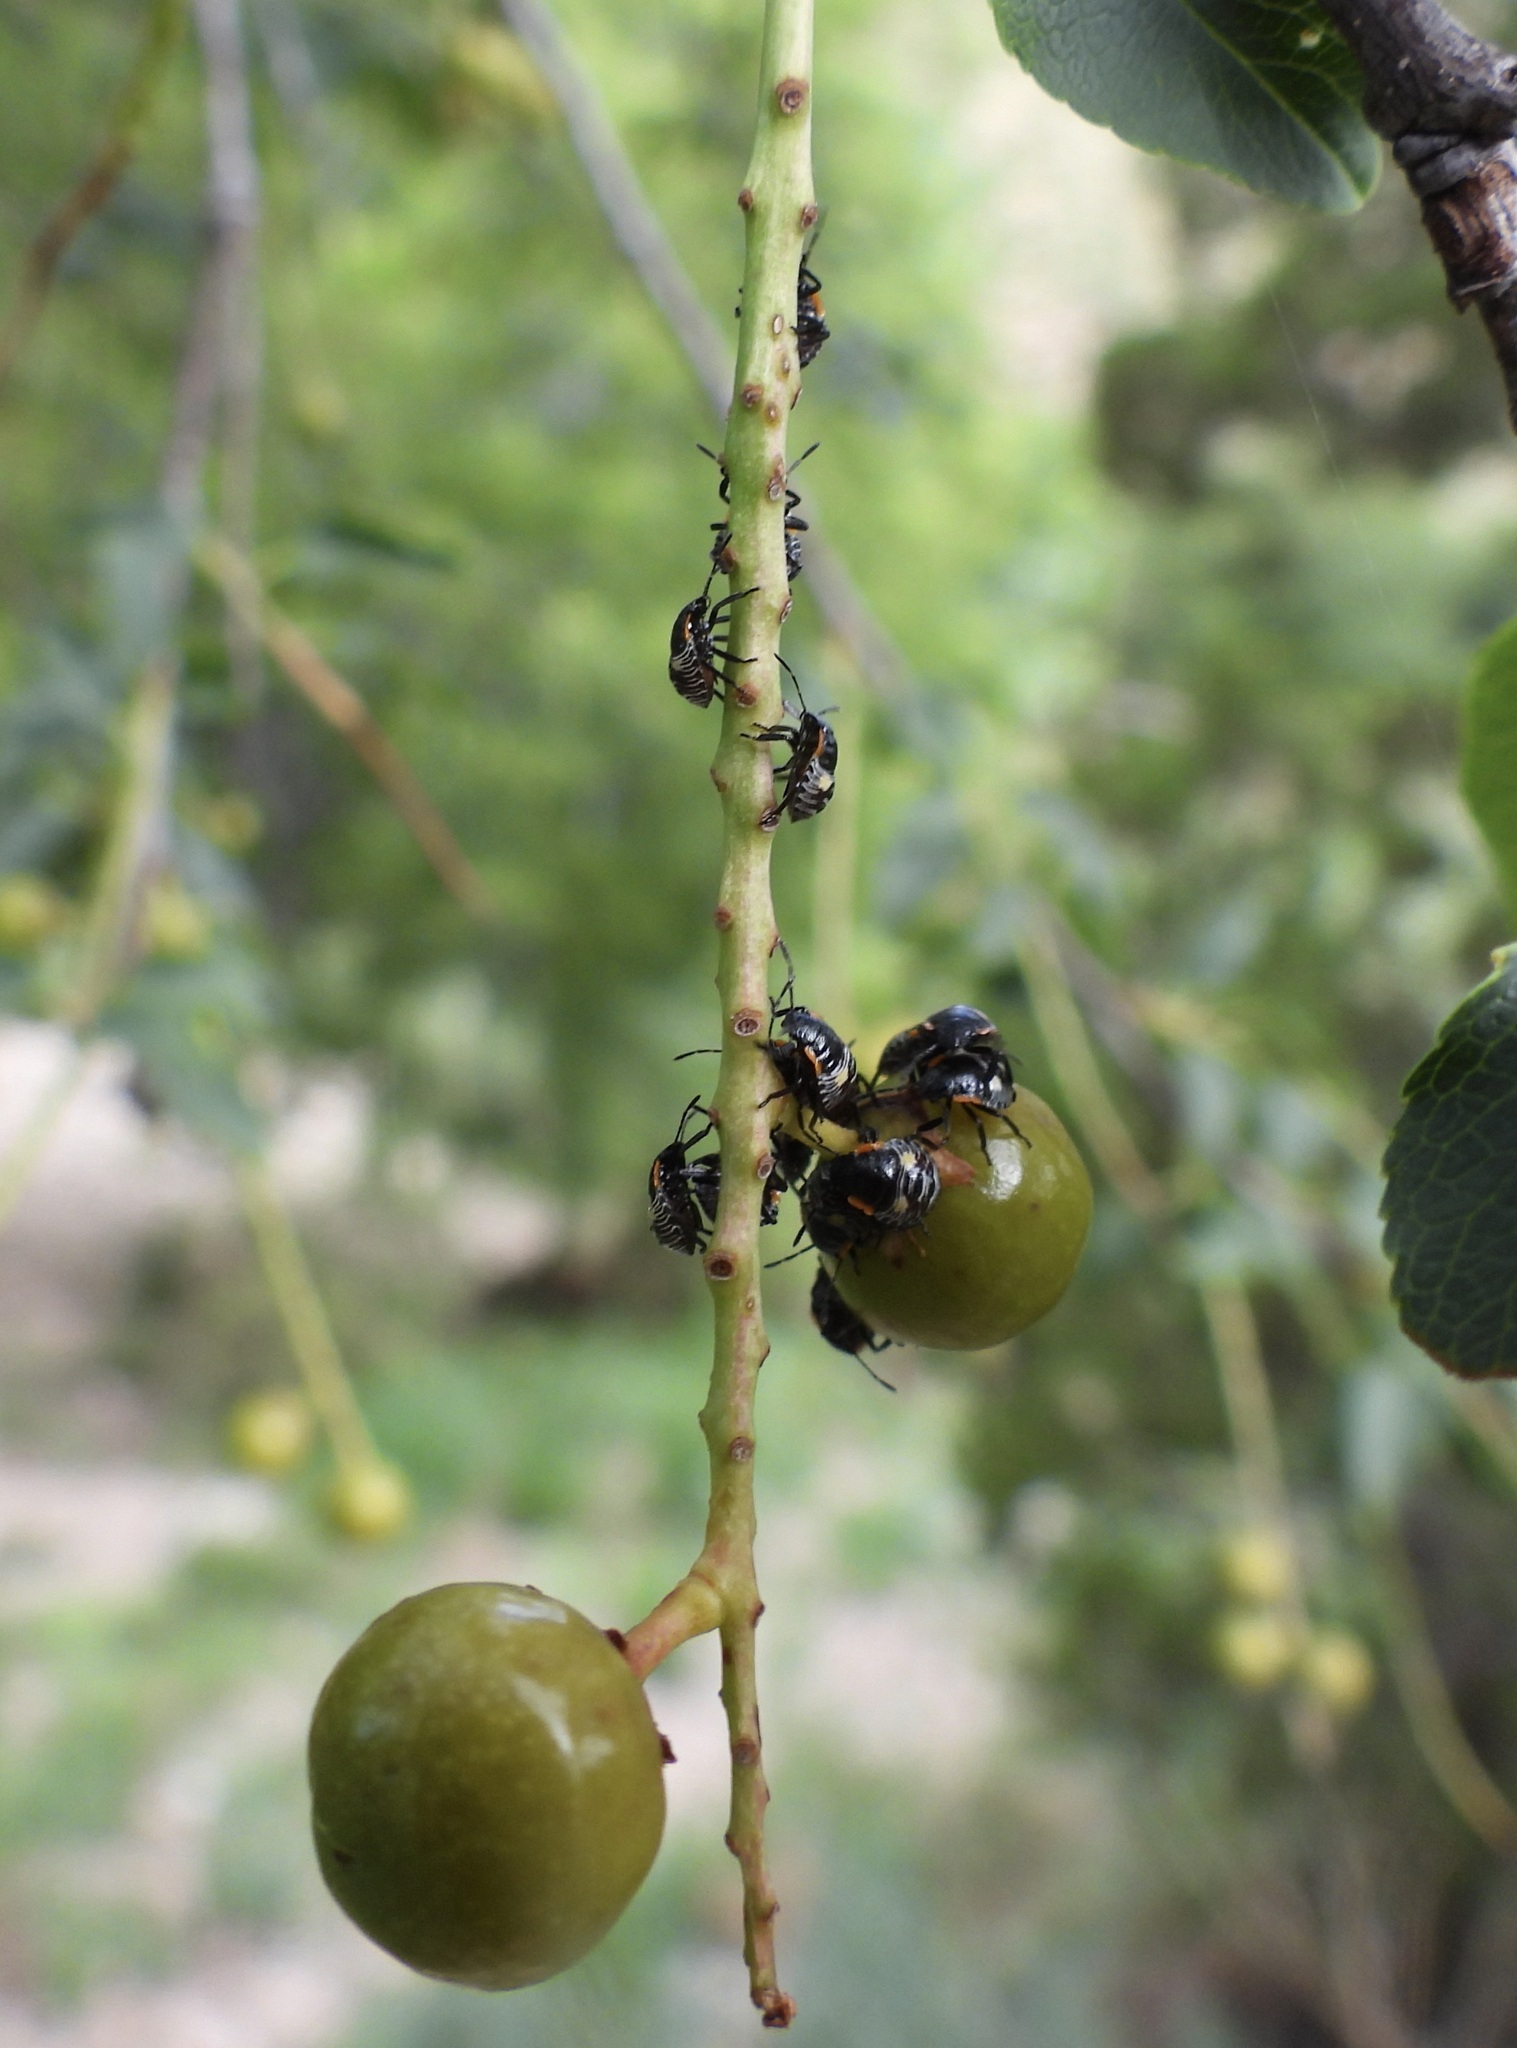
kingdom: Animalia
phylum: Arthropoda
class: Insecta
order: Hemiptera
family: Pentatomidae
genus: Chinavia
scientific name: Chinavia hilaris
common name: Green stink bug
